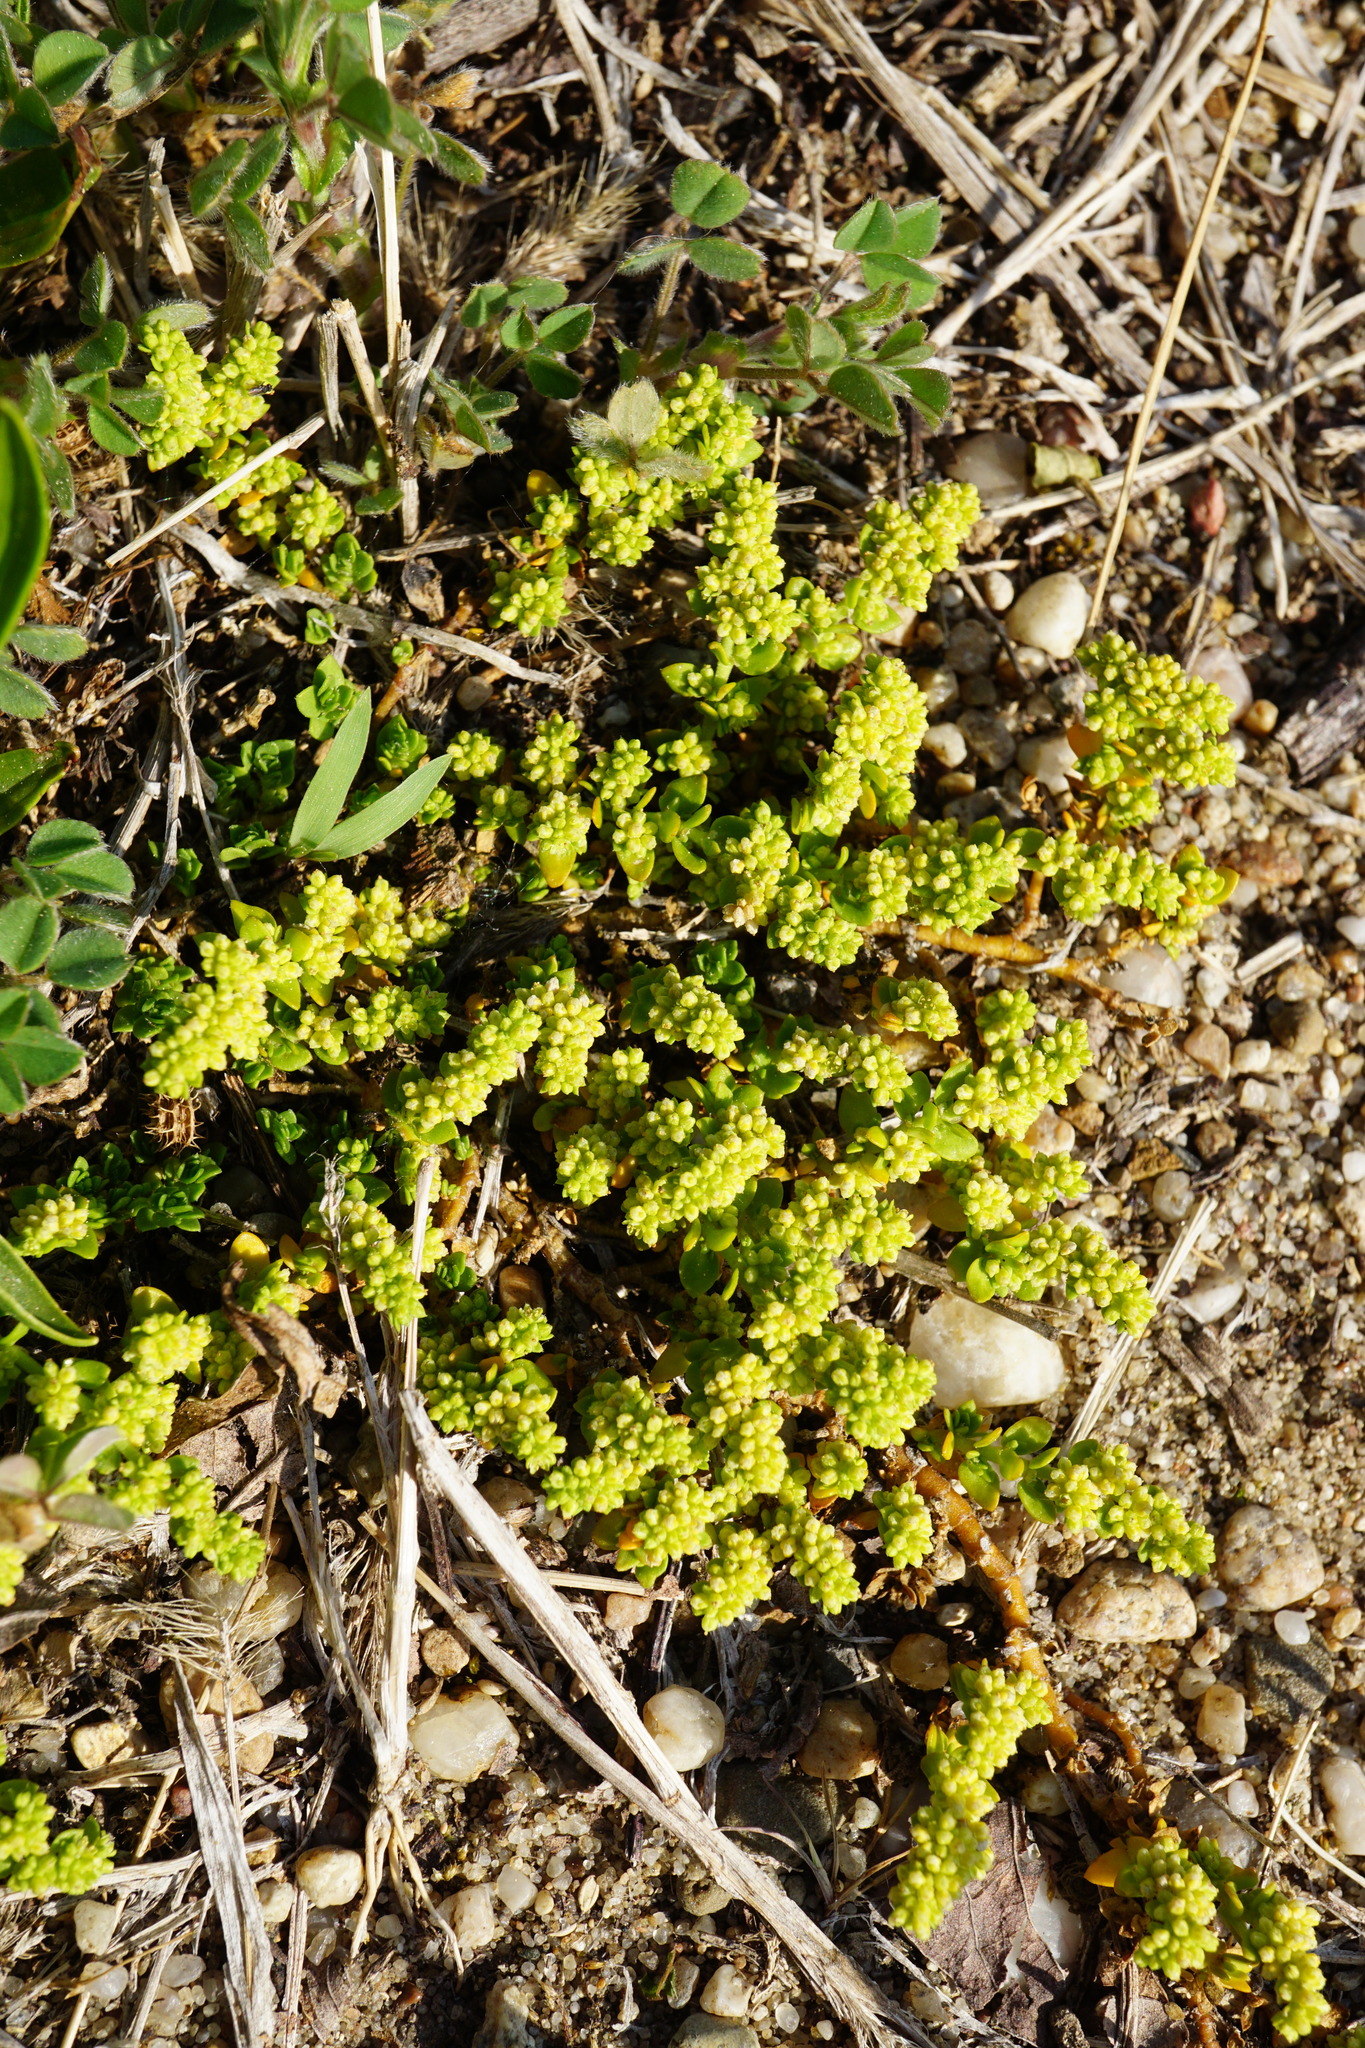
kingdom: Plantae
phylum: Tracheophyta
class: Magnoliopsida
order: Caryophyllales
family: Caryophyllaceae
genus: Herniaria
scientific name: Herniaria glabra
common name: Smooth rupturewort
